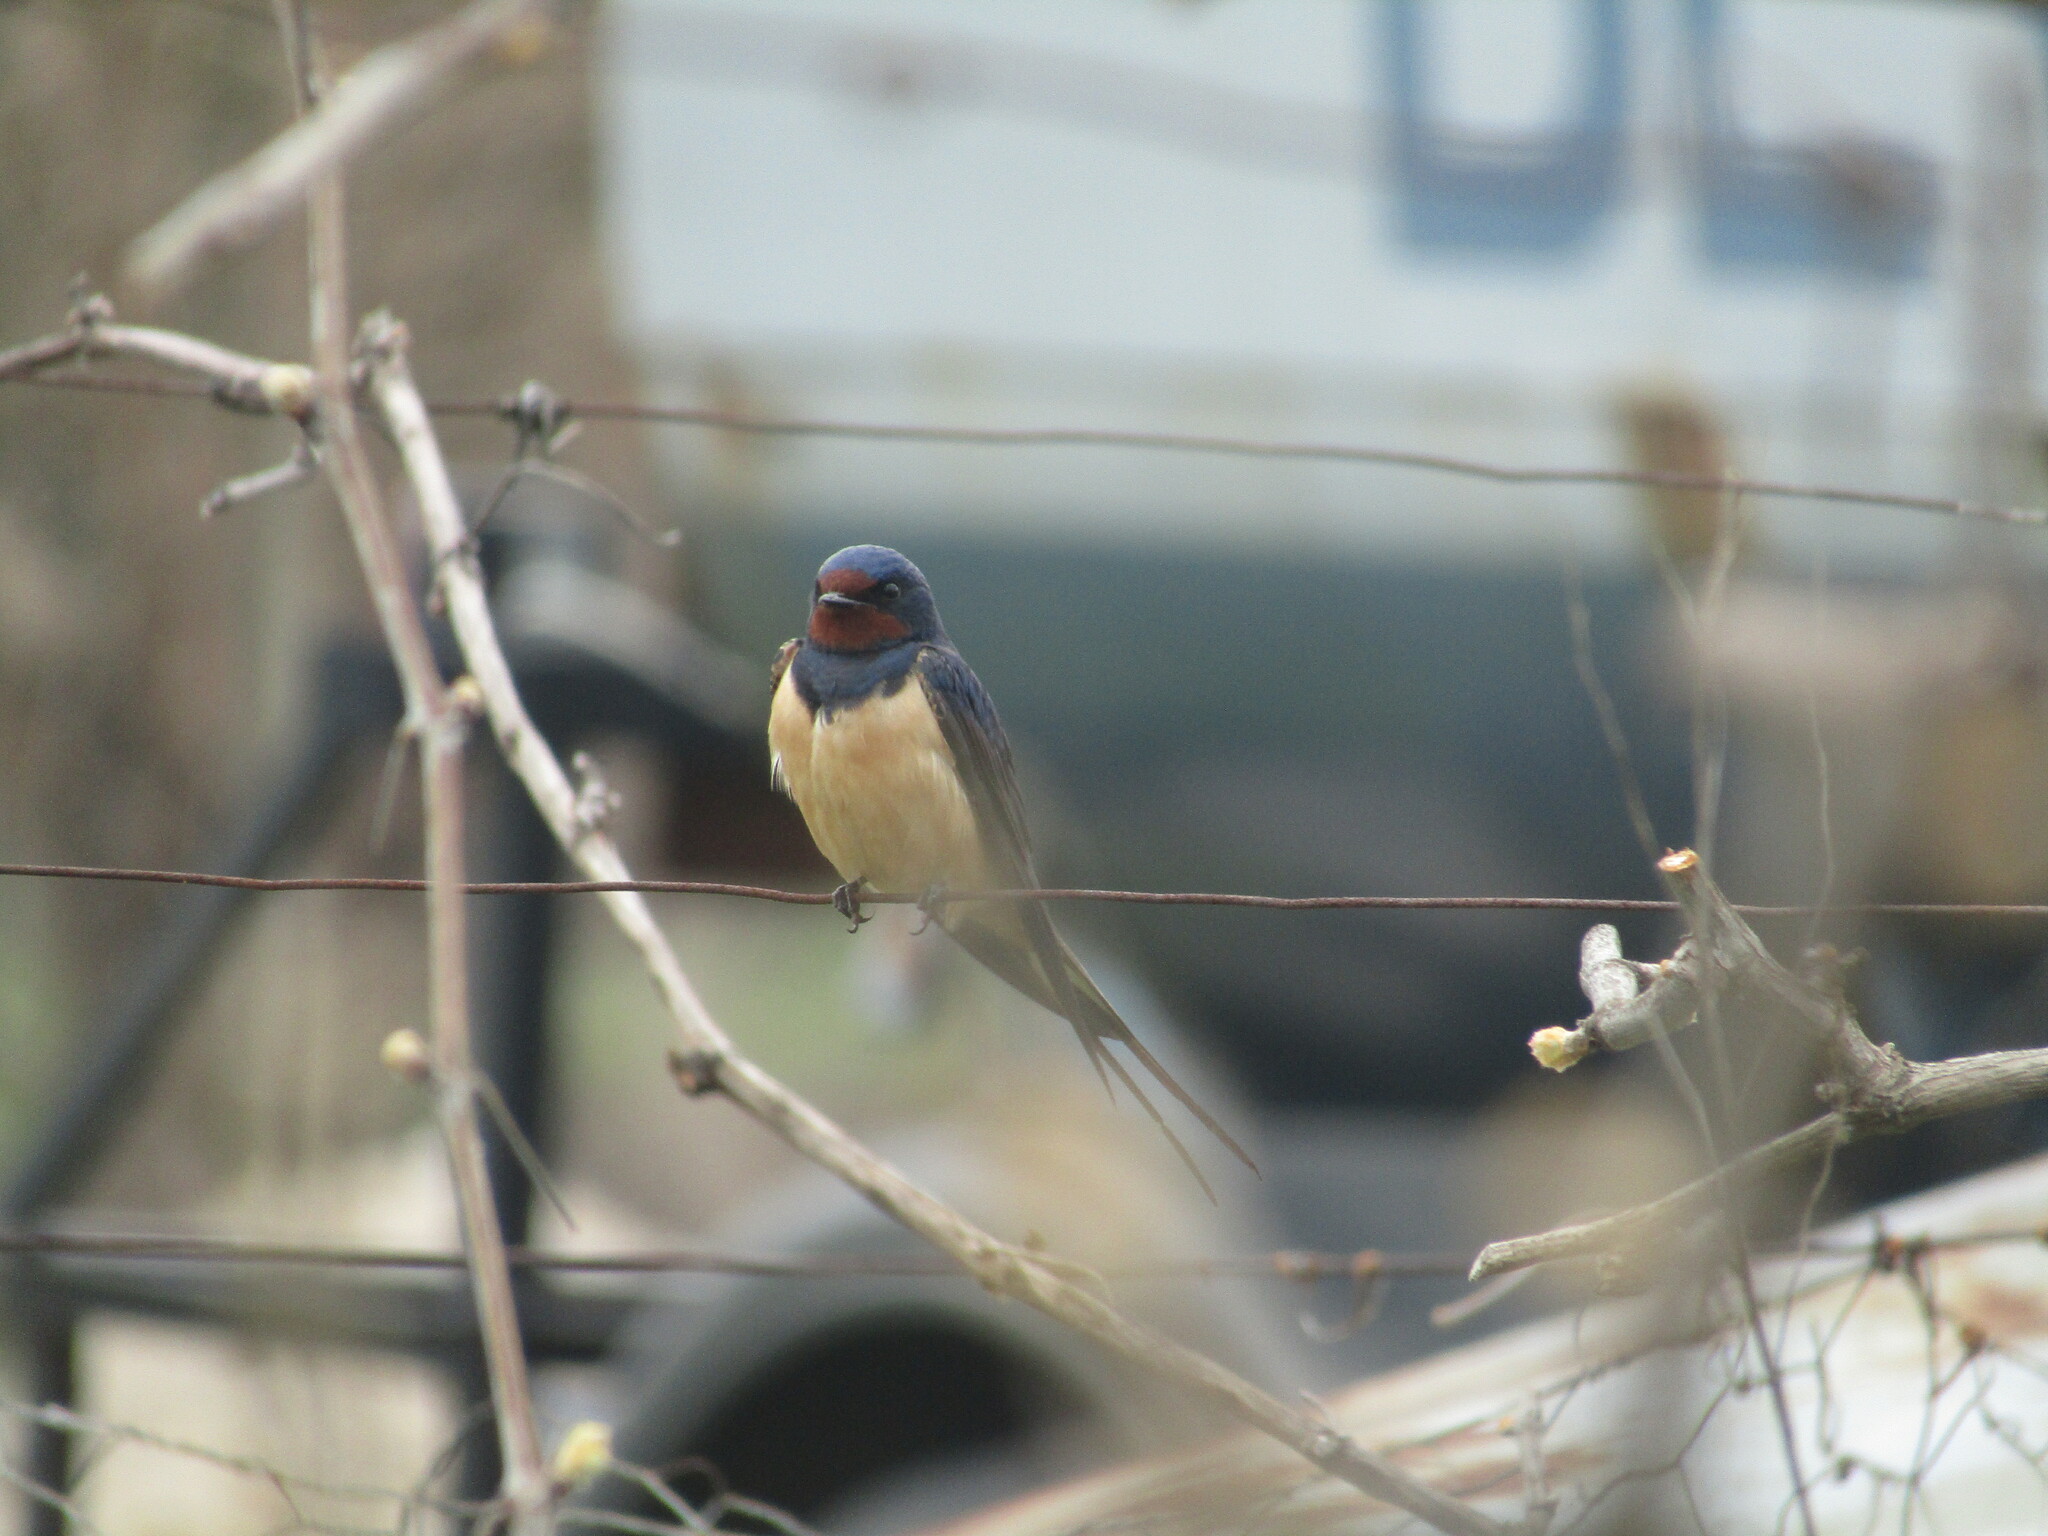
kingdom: Animalia
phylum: Chordata
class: Aves
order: Passeriformes
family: Hirundinidae
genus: Hirundo
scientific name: Hirundo rustica
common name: Barn swallow
